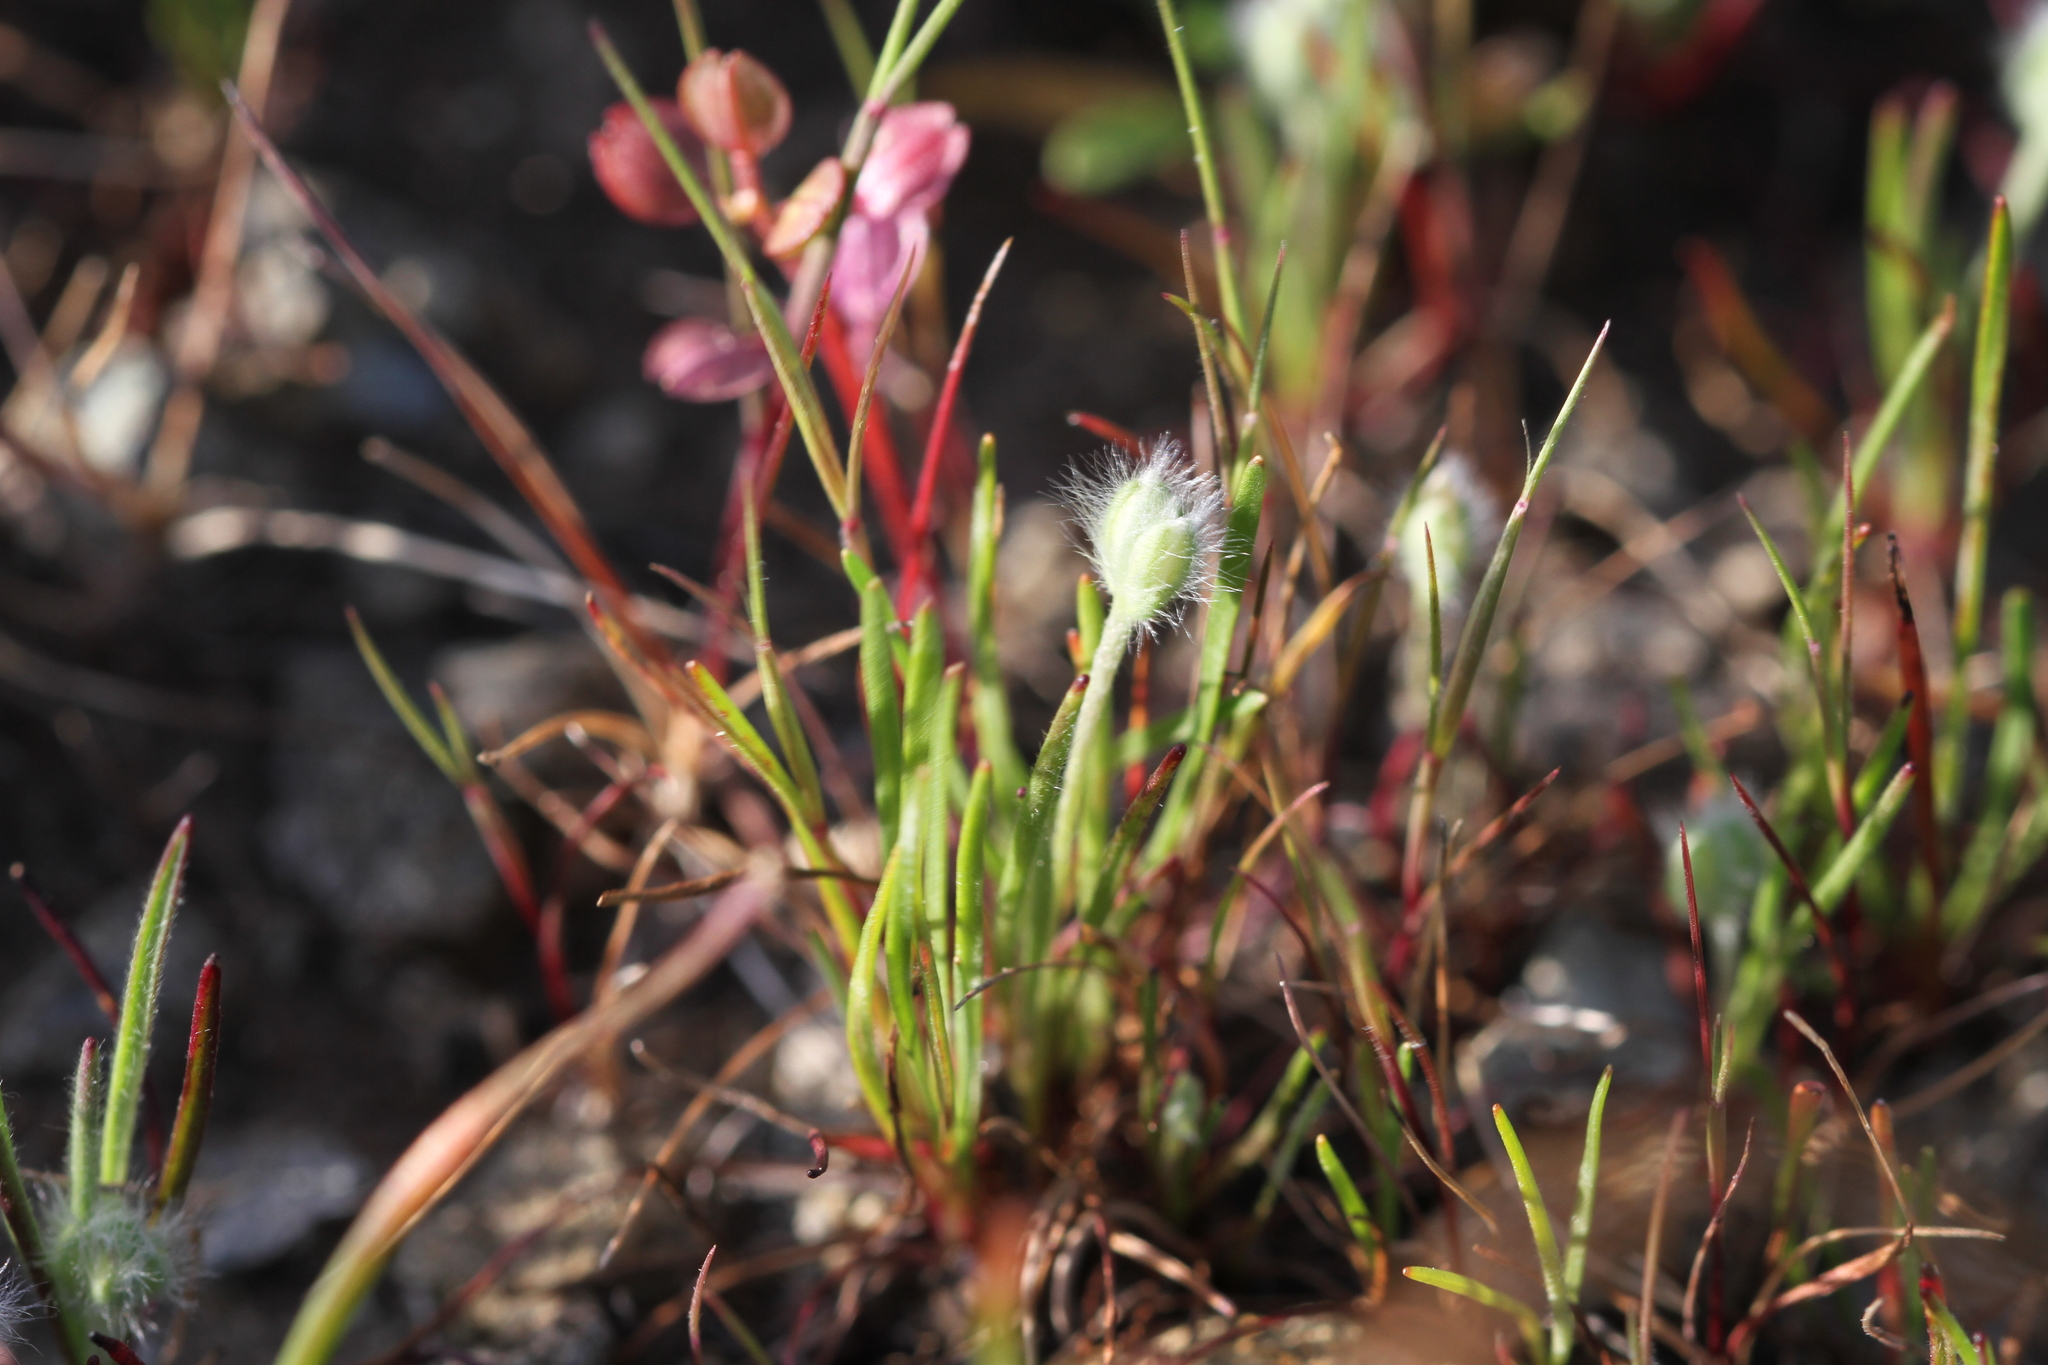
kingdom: Plantae
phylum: Tracheophyta
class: Magnoliopsida
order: Lamiales
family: Plantaginaceae
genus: Plantago
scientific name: Plantago erecta
